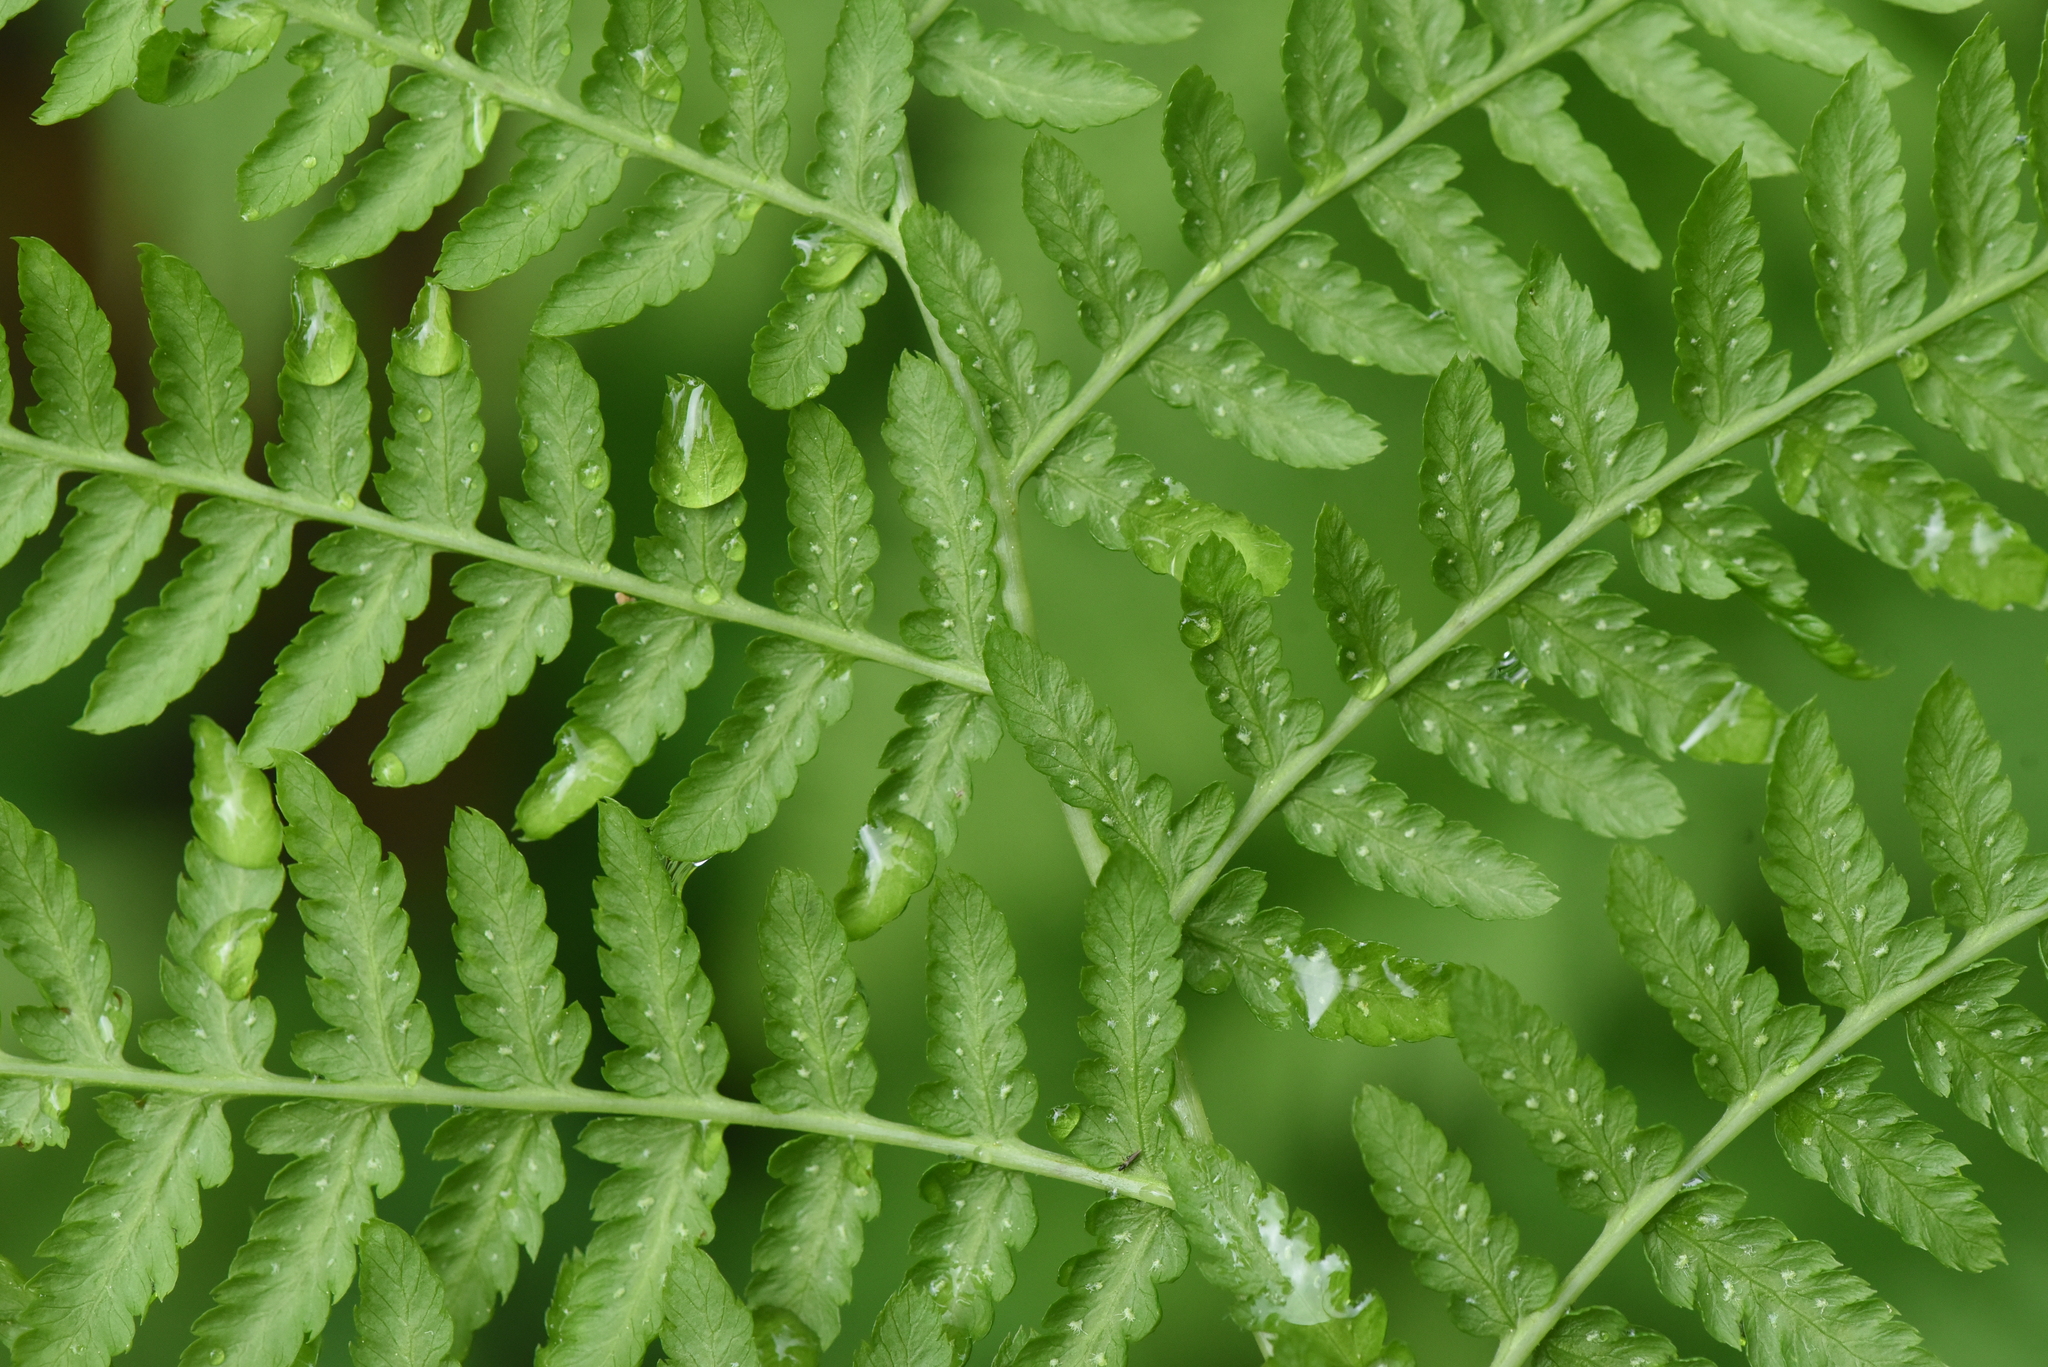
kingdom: Plantae
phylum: Tracheophyta
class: Polypodiopsida
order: Polypodiales
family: Athyriaceae
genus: Athyrium
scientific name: Athyrium filix-femina
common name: Lady fern
